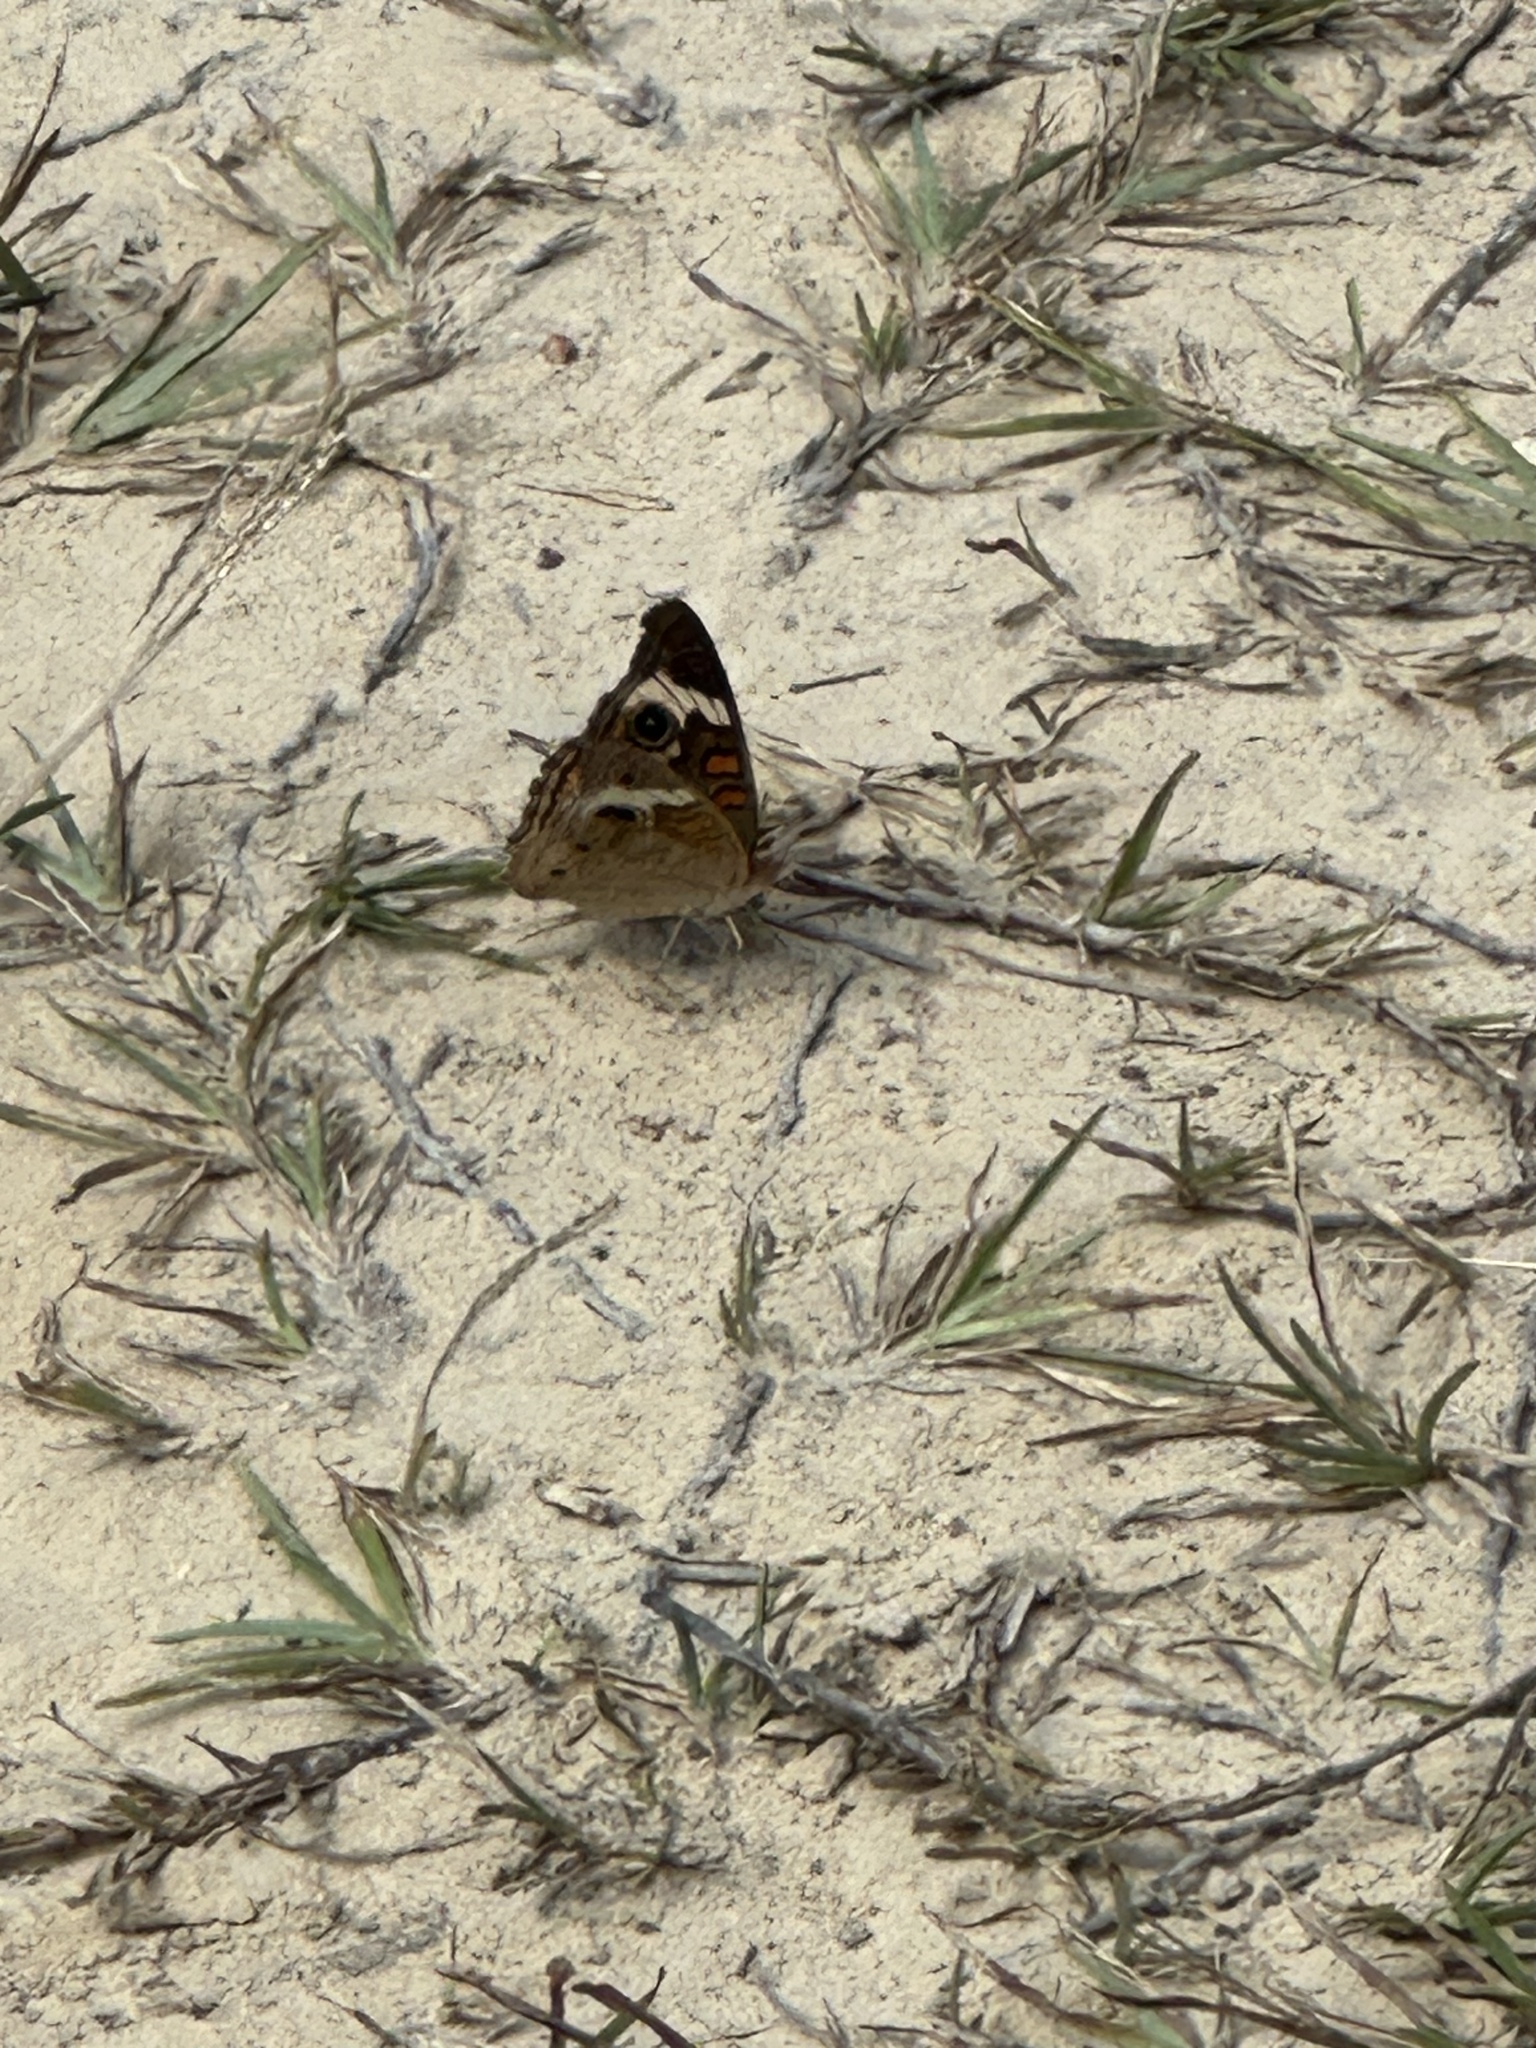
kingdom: Animalia
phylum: Arthropoda
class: Insecta
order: Lepidoptera
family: Nymphalidae
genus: Junonia
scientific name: Junonia coenia
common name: Common buckeye
